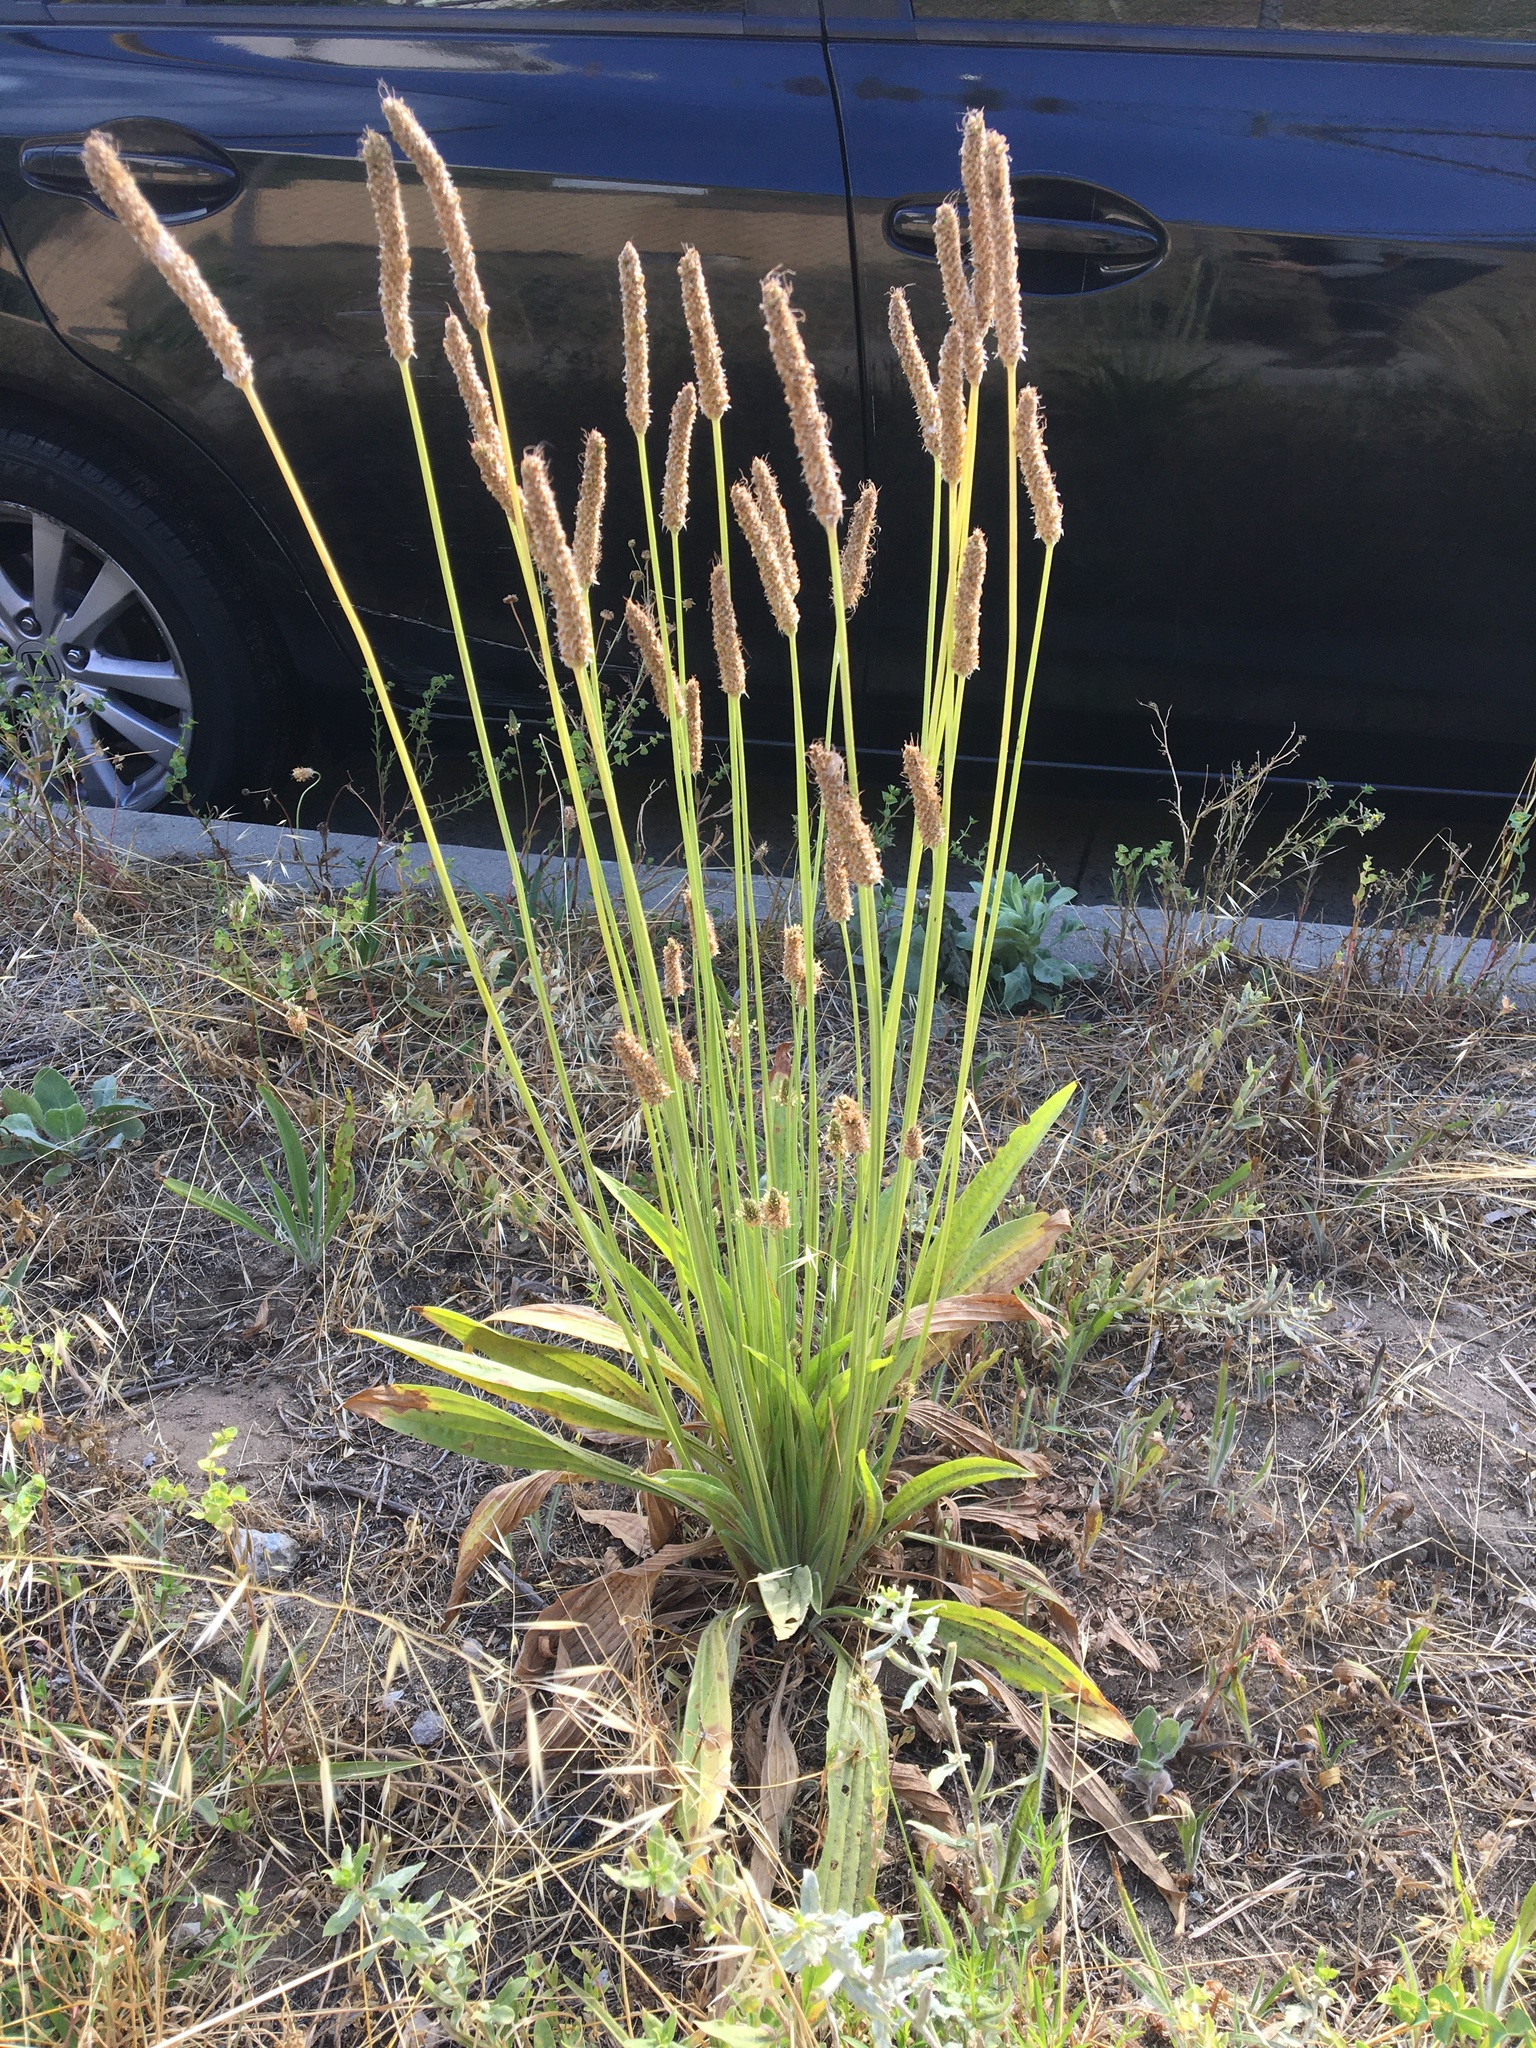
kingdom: Plantae
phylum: Tracheophyta
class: Magnoliopsida
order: Lamiales
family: Plantaginaceae
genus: Plantago
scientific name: Plantago lanceolata
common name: Ribwort plantain
